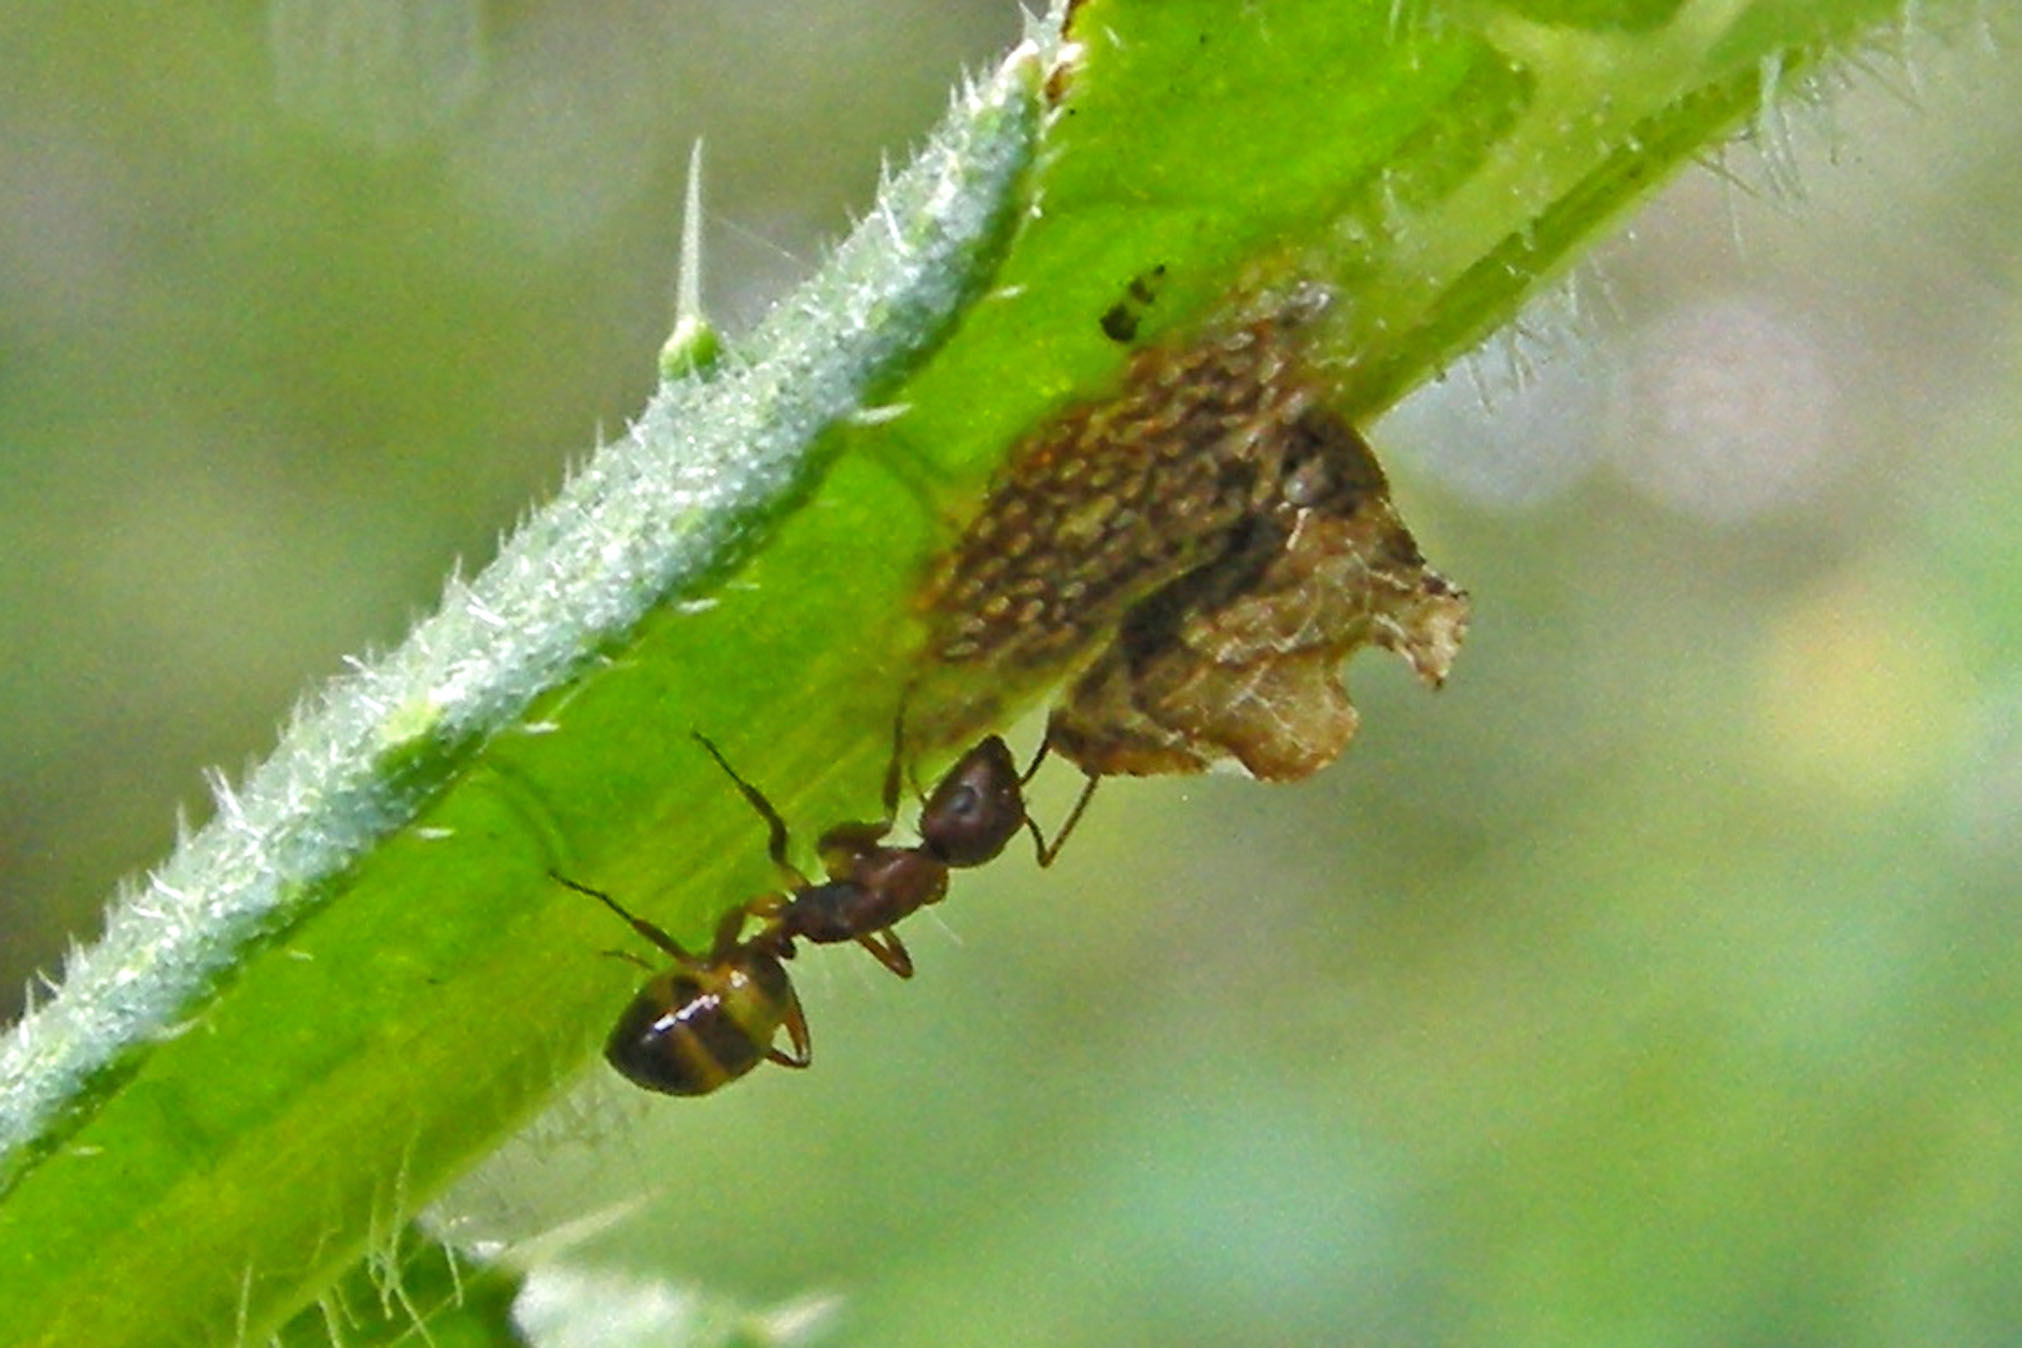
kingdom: Animalia
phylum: Arthropoda
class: Insecta
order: Hemiptera
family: Membracidae
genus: Entylia
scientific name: Entylia carinata
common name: Keeled treehopper
